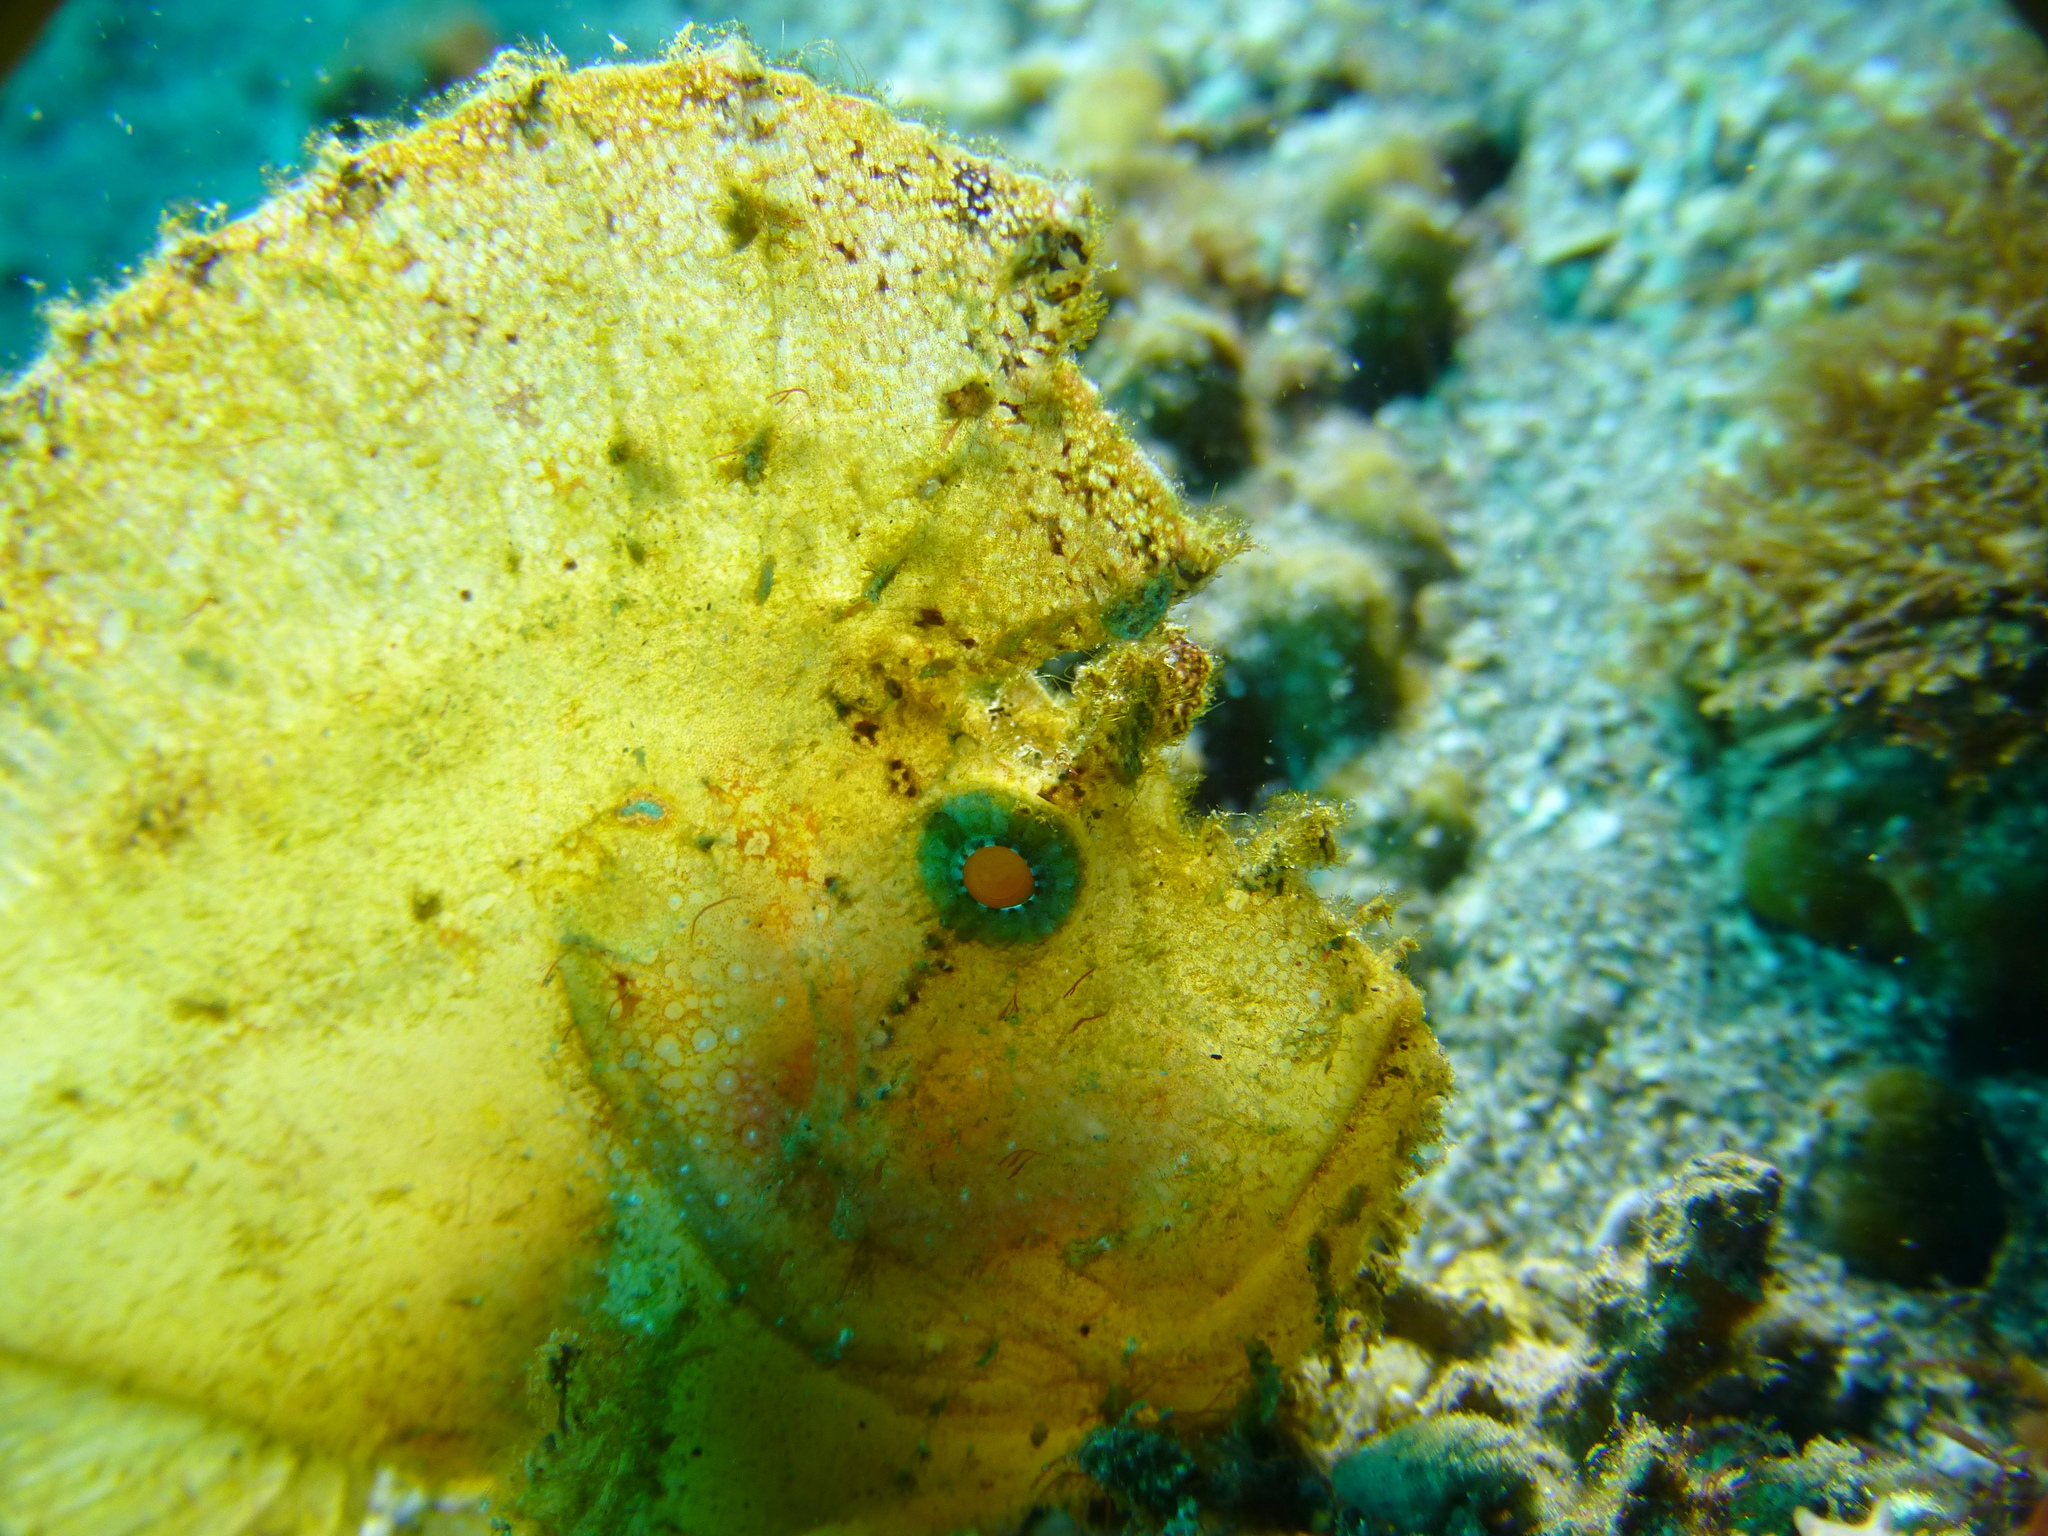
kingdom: Animalia
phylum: Chordata
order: Scorpaeniformes
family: Scorpaenidae
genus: Taenianotus
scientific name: Taenianotus triacanthus
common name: Leaf scorpionfish
